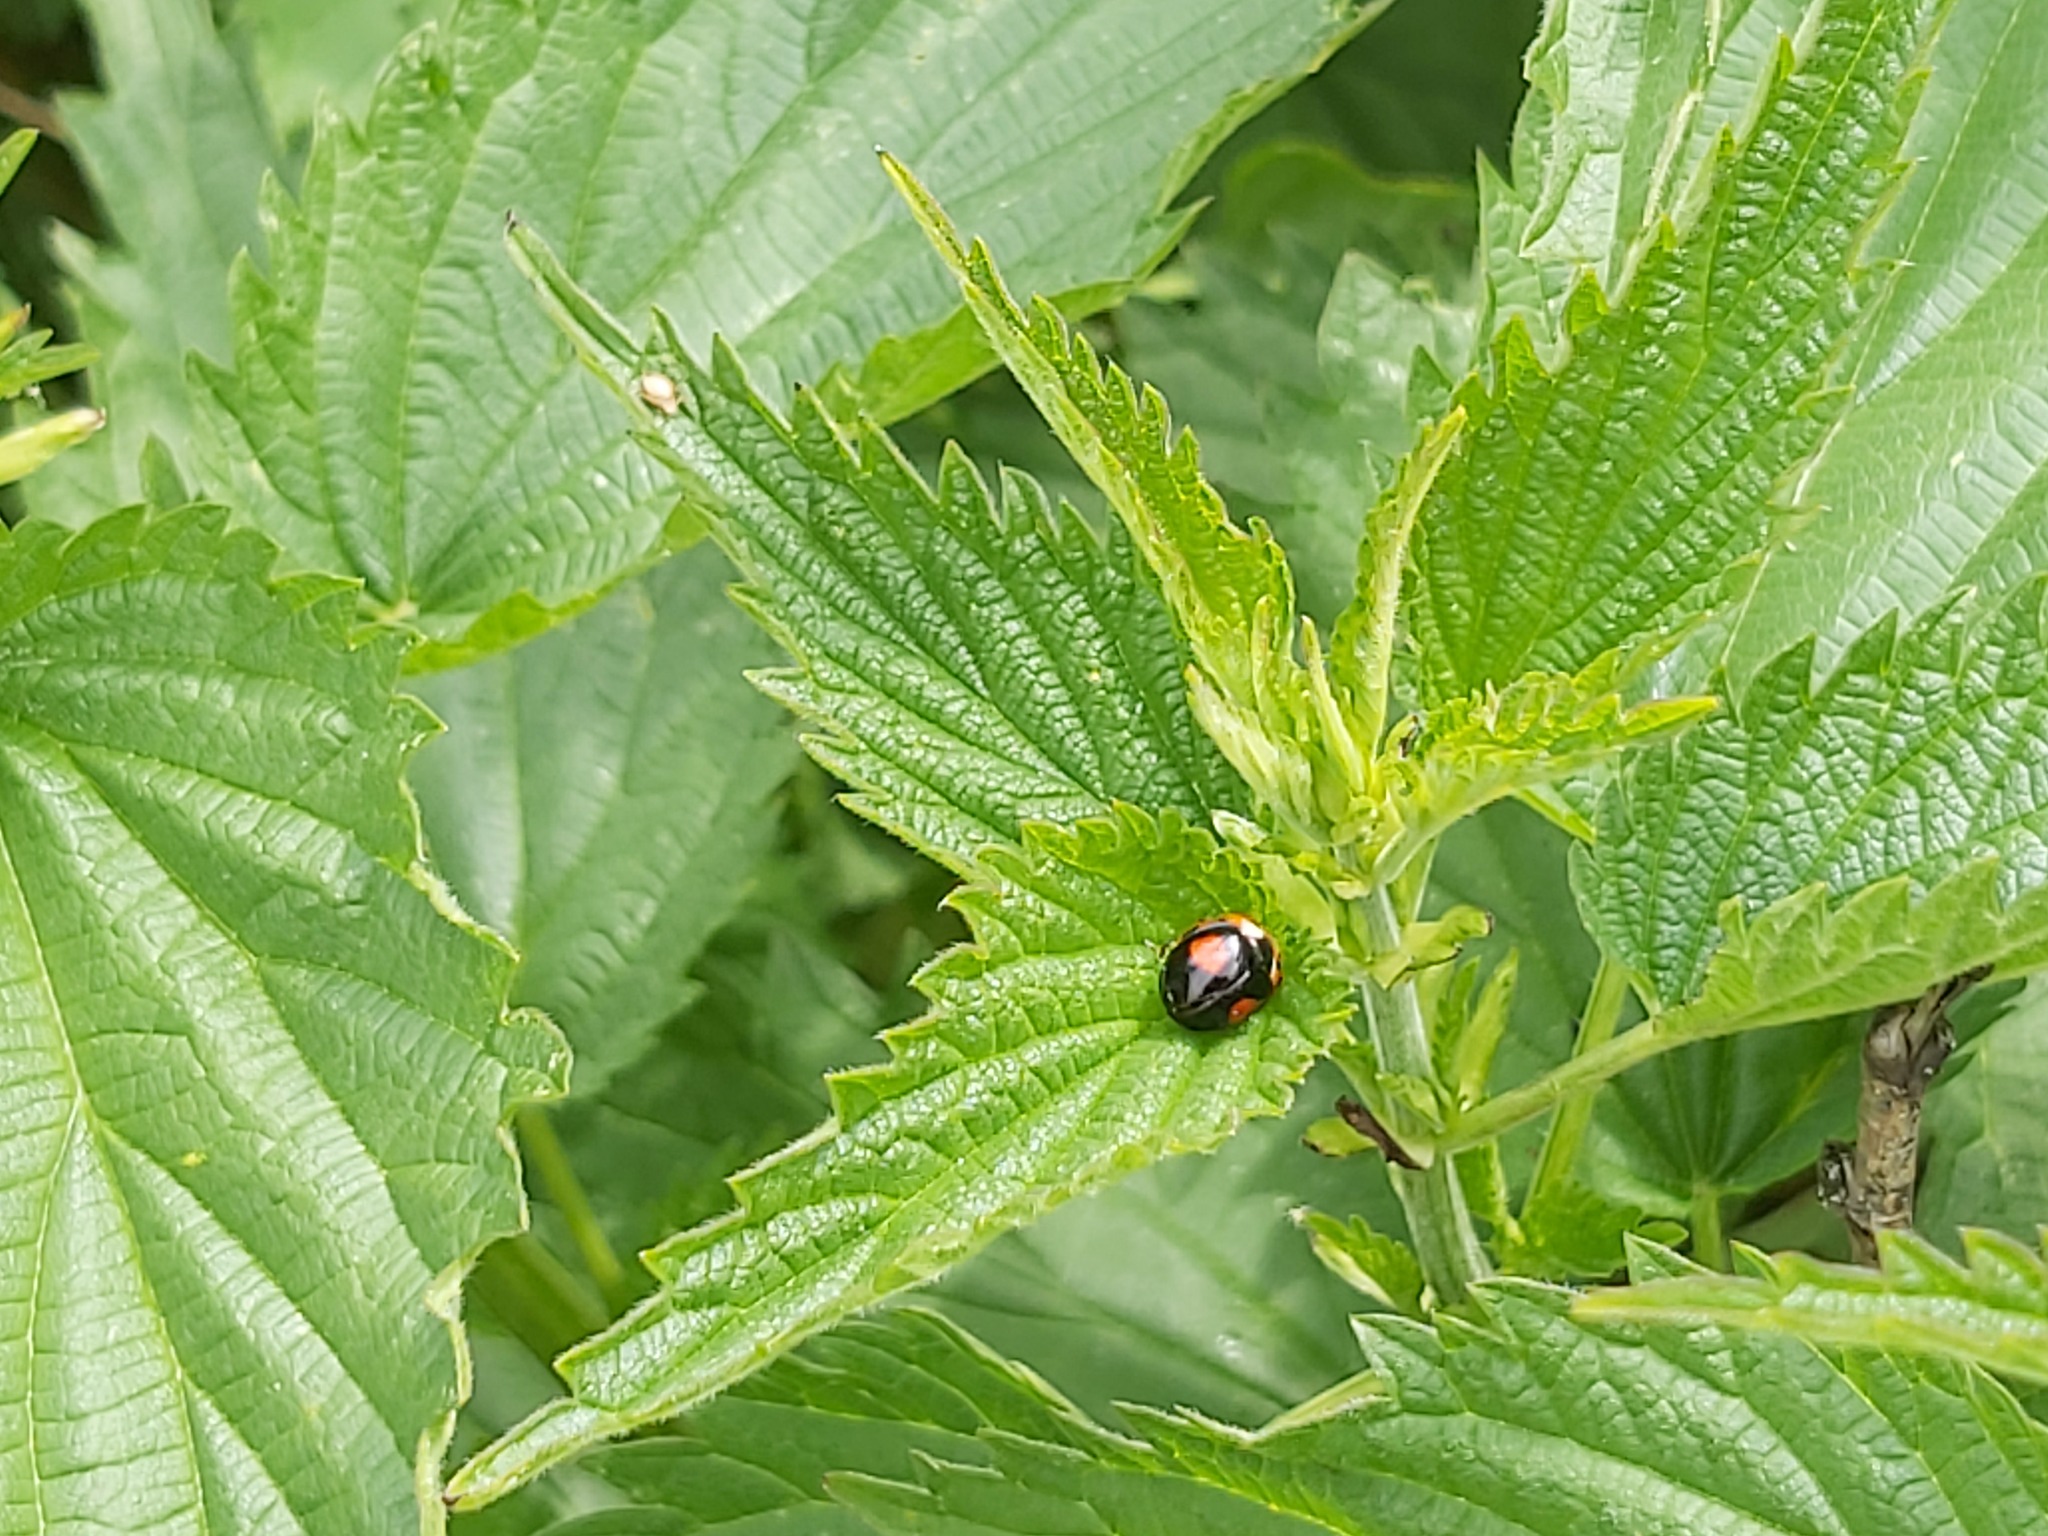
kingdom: Animalia
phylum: Arthropoda
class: Insecta
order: Coleoptera
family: Coccinellidae
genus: Harmonia
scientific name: Harmonia axyridis
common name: Harlequin ladybird
